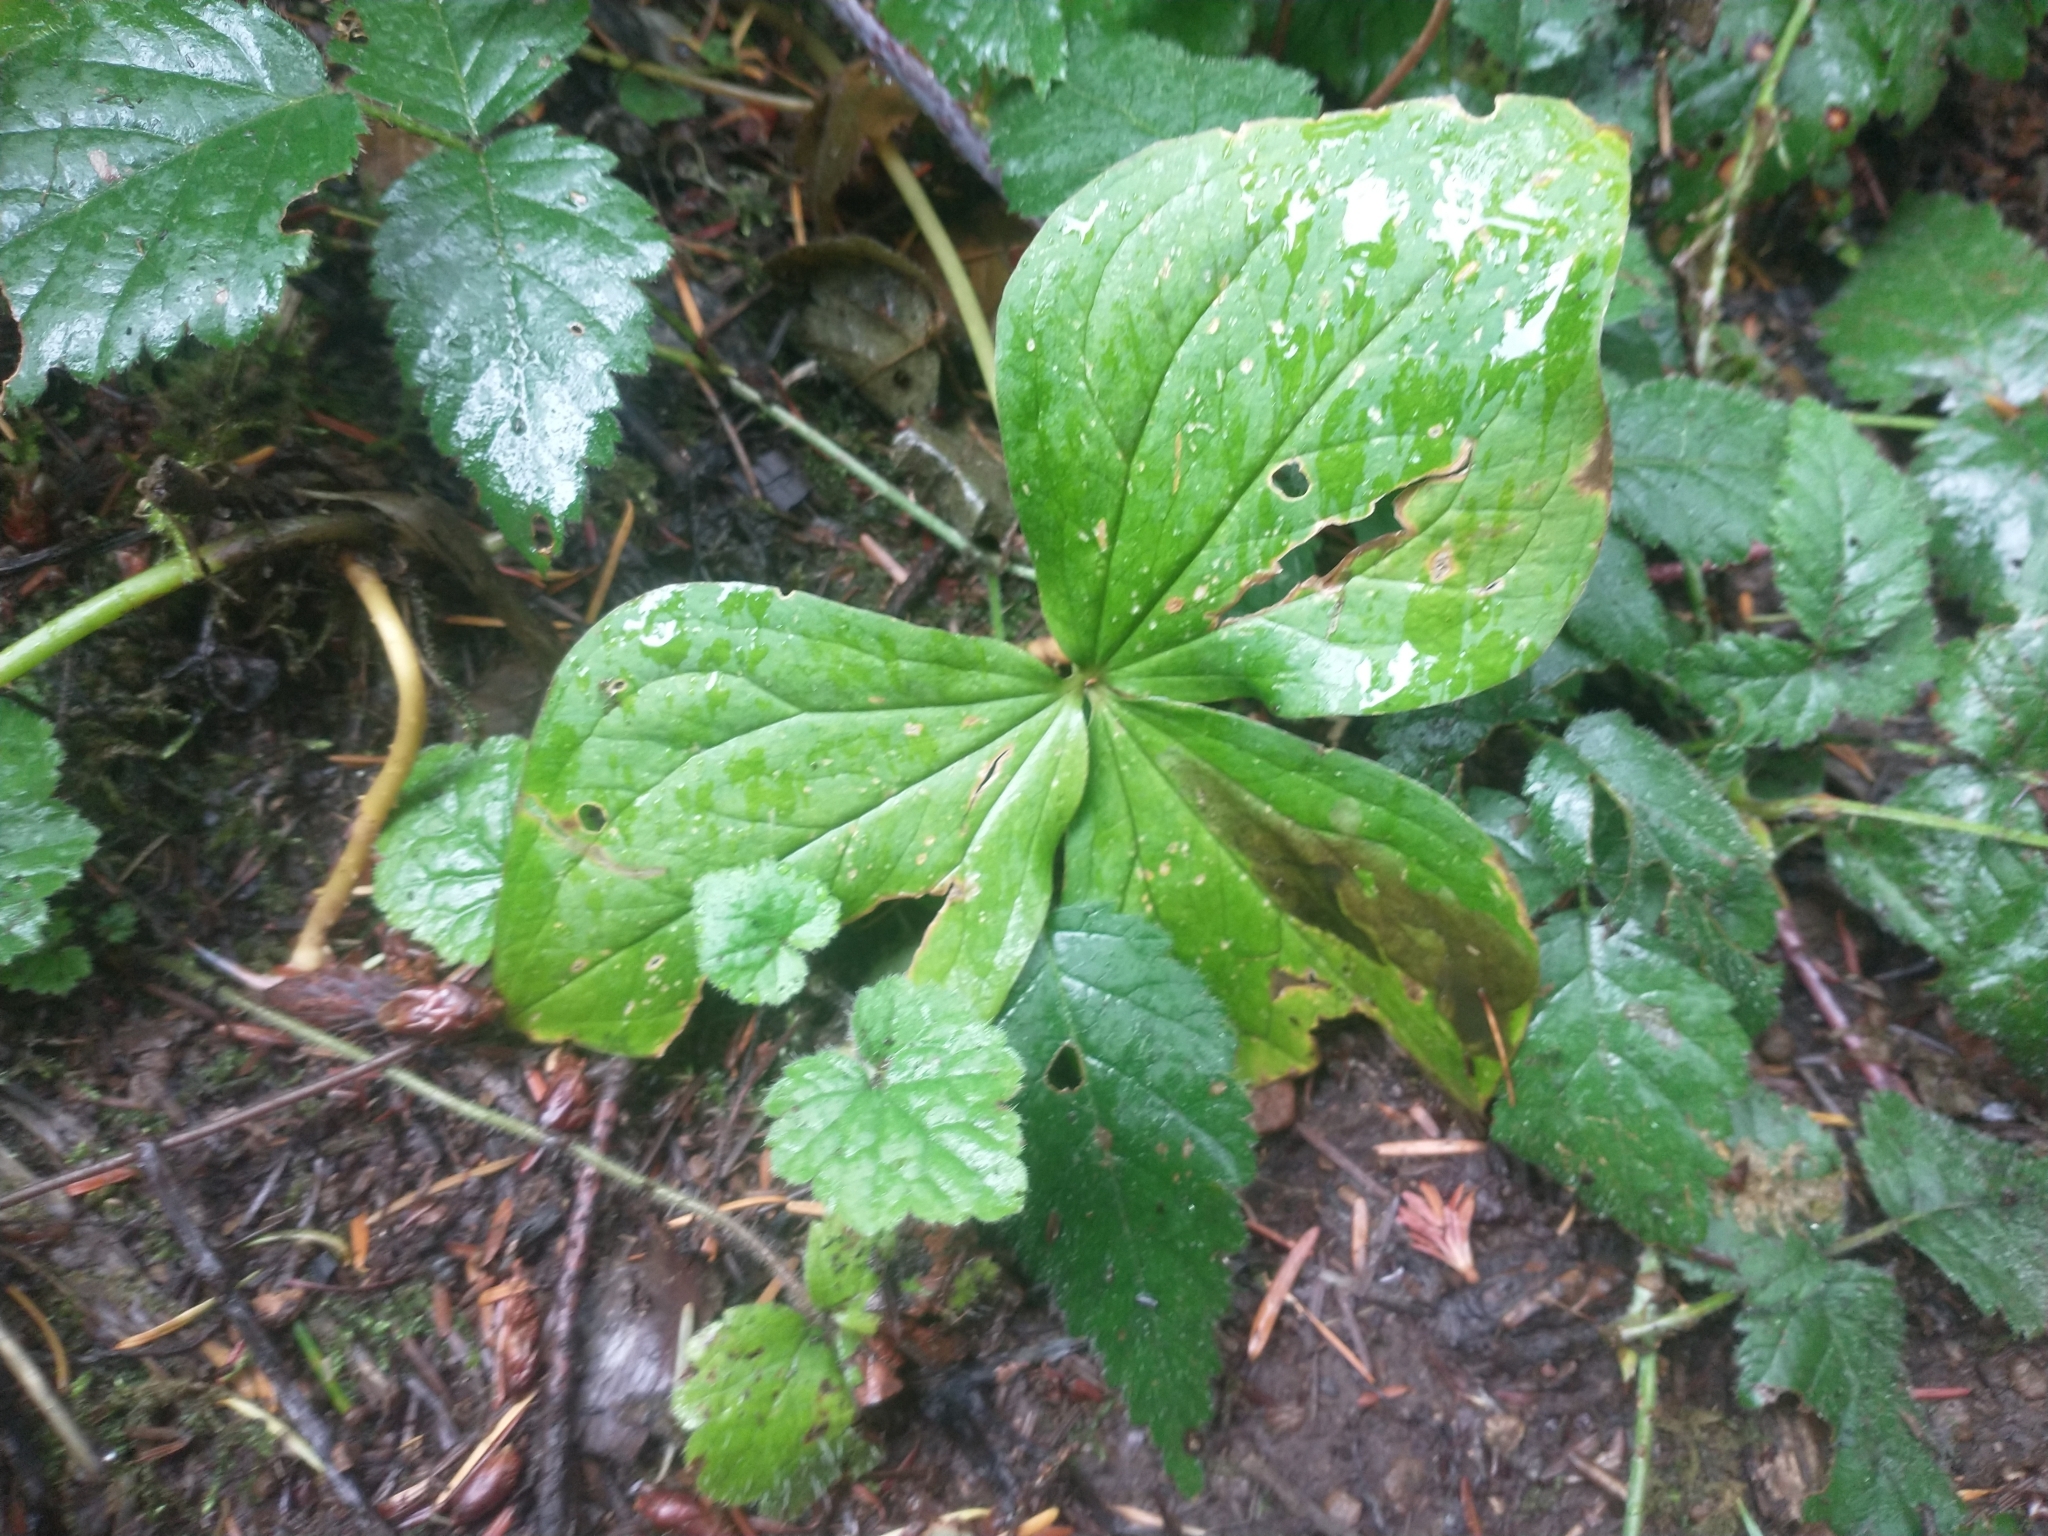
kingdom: Plantae
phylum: Tracheophyta
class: Liliopsida
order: Liliales
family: Melanthiaceae
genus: Trillium
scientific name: Trillium ovatum
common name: Pacific trillium
